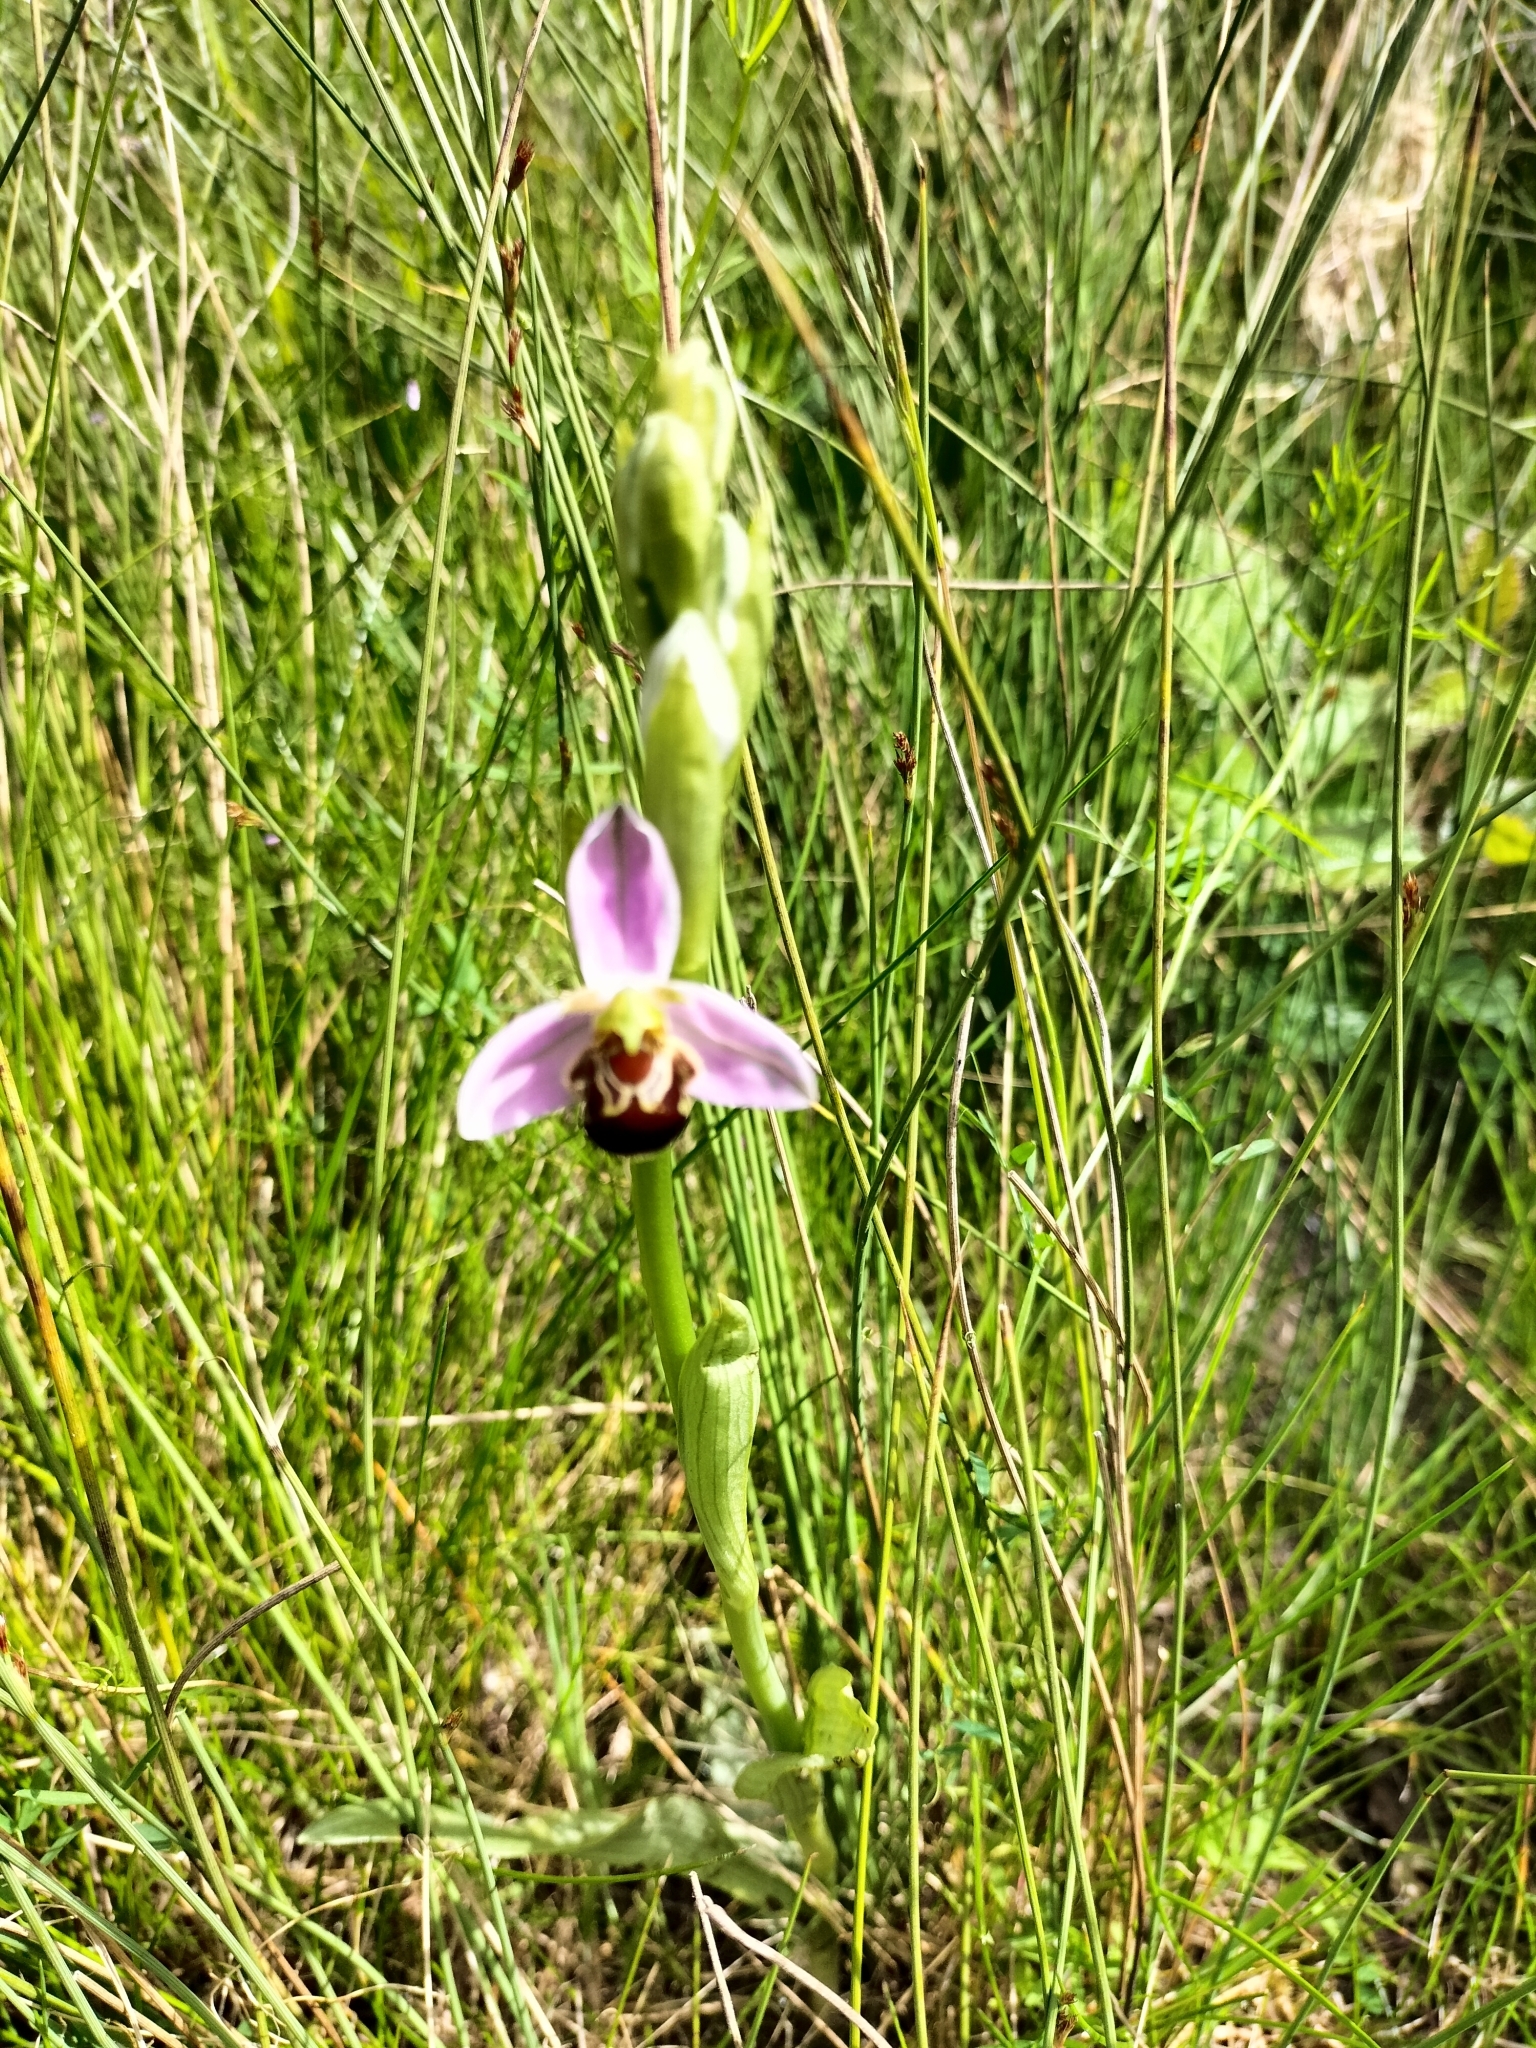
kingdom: Plantae
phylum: Tracheophyta
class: Liliopsida
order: Asparagales
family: Orchidaceae
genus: Ophrys
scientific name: Ophrys apifera
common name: Bee orchid
